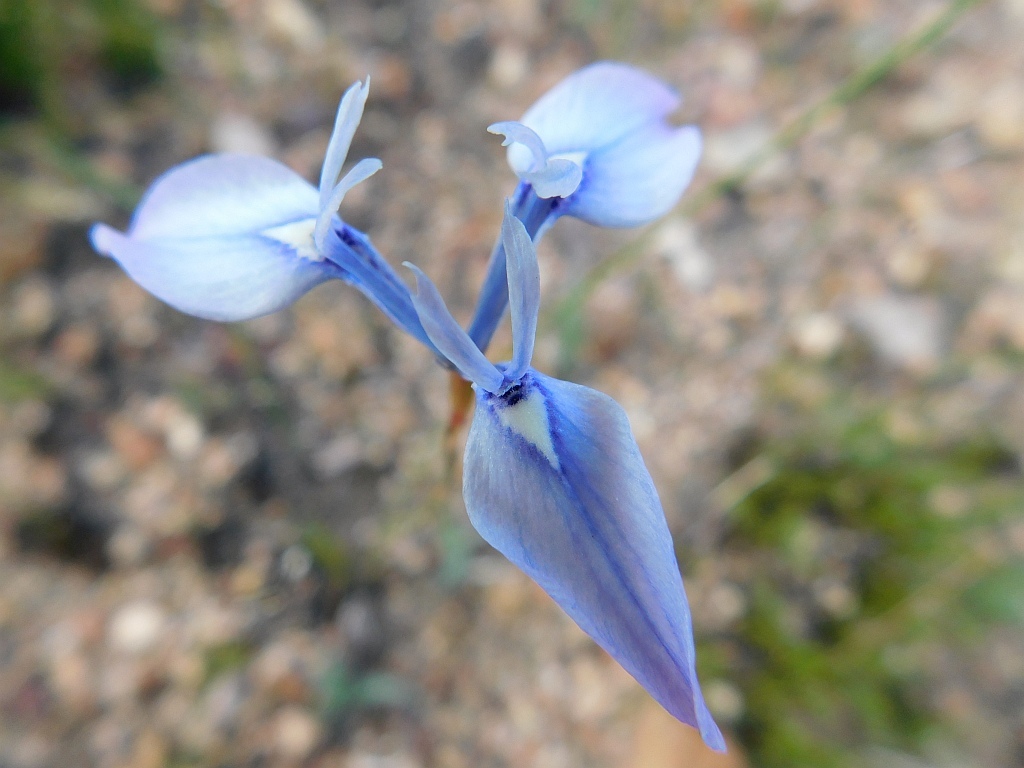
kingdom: Plantae
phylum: Tracheophyta
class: Liliopsida
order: Asparagales
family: Iridaceae
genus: Moraea
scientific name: Moraea tripetala
